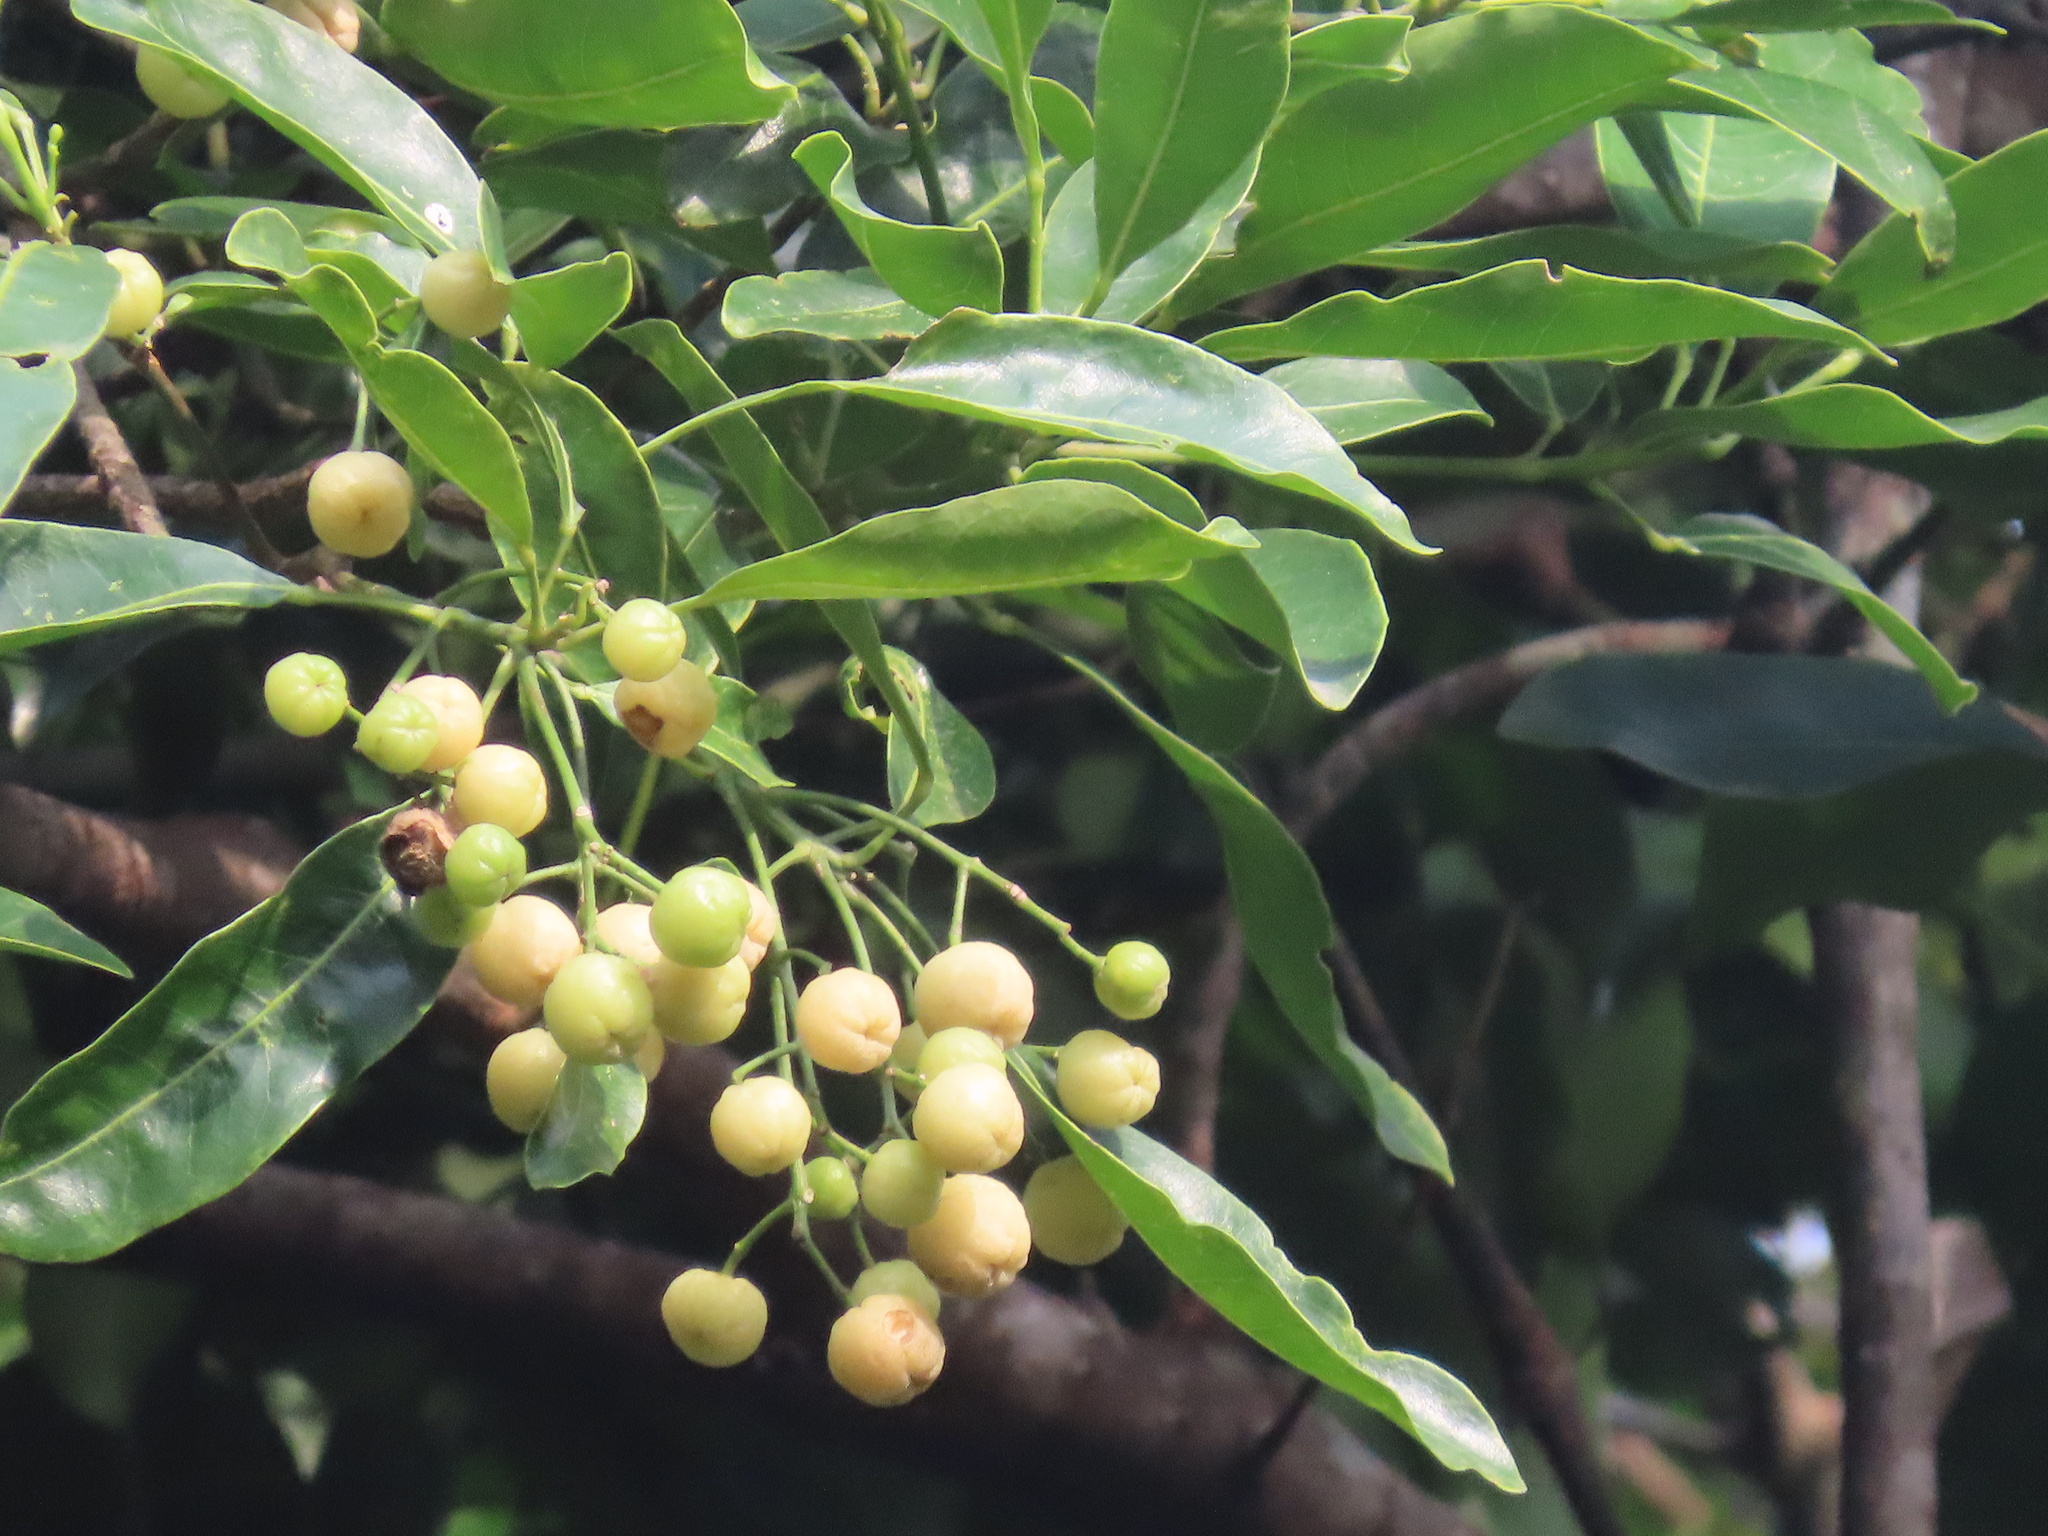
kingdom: Plantae
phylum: Tracheophyta
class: Magnoliopsida
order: Sapindales
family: Rutaceae
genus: Acronychia
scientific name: Acronychia pedunculata
